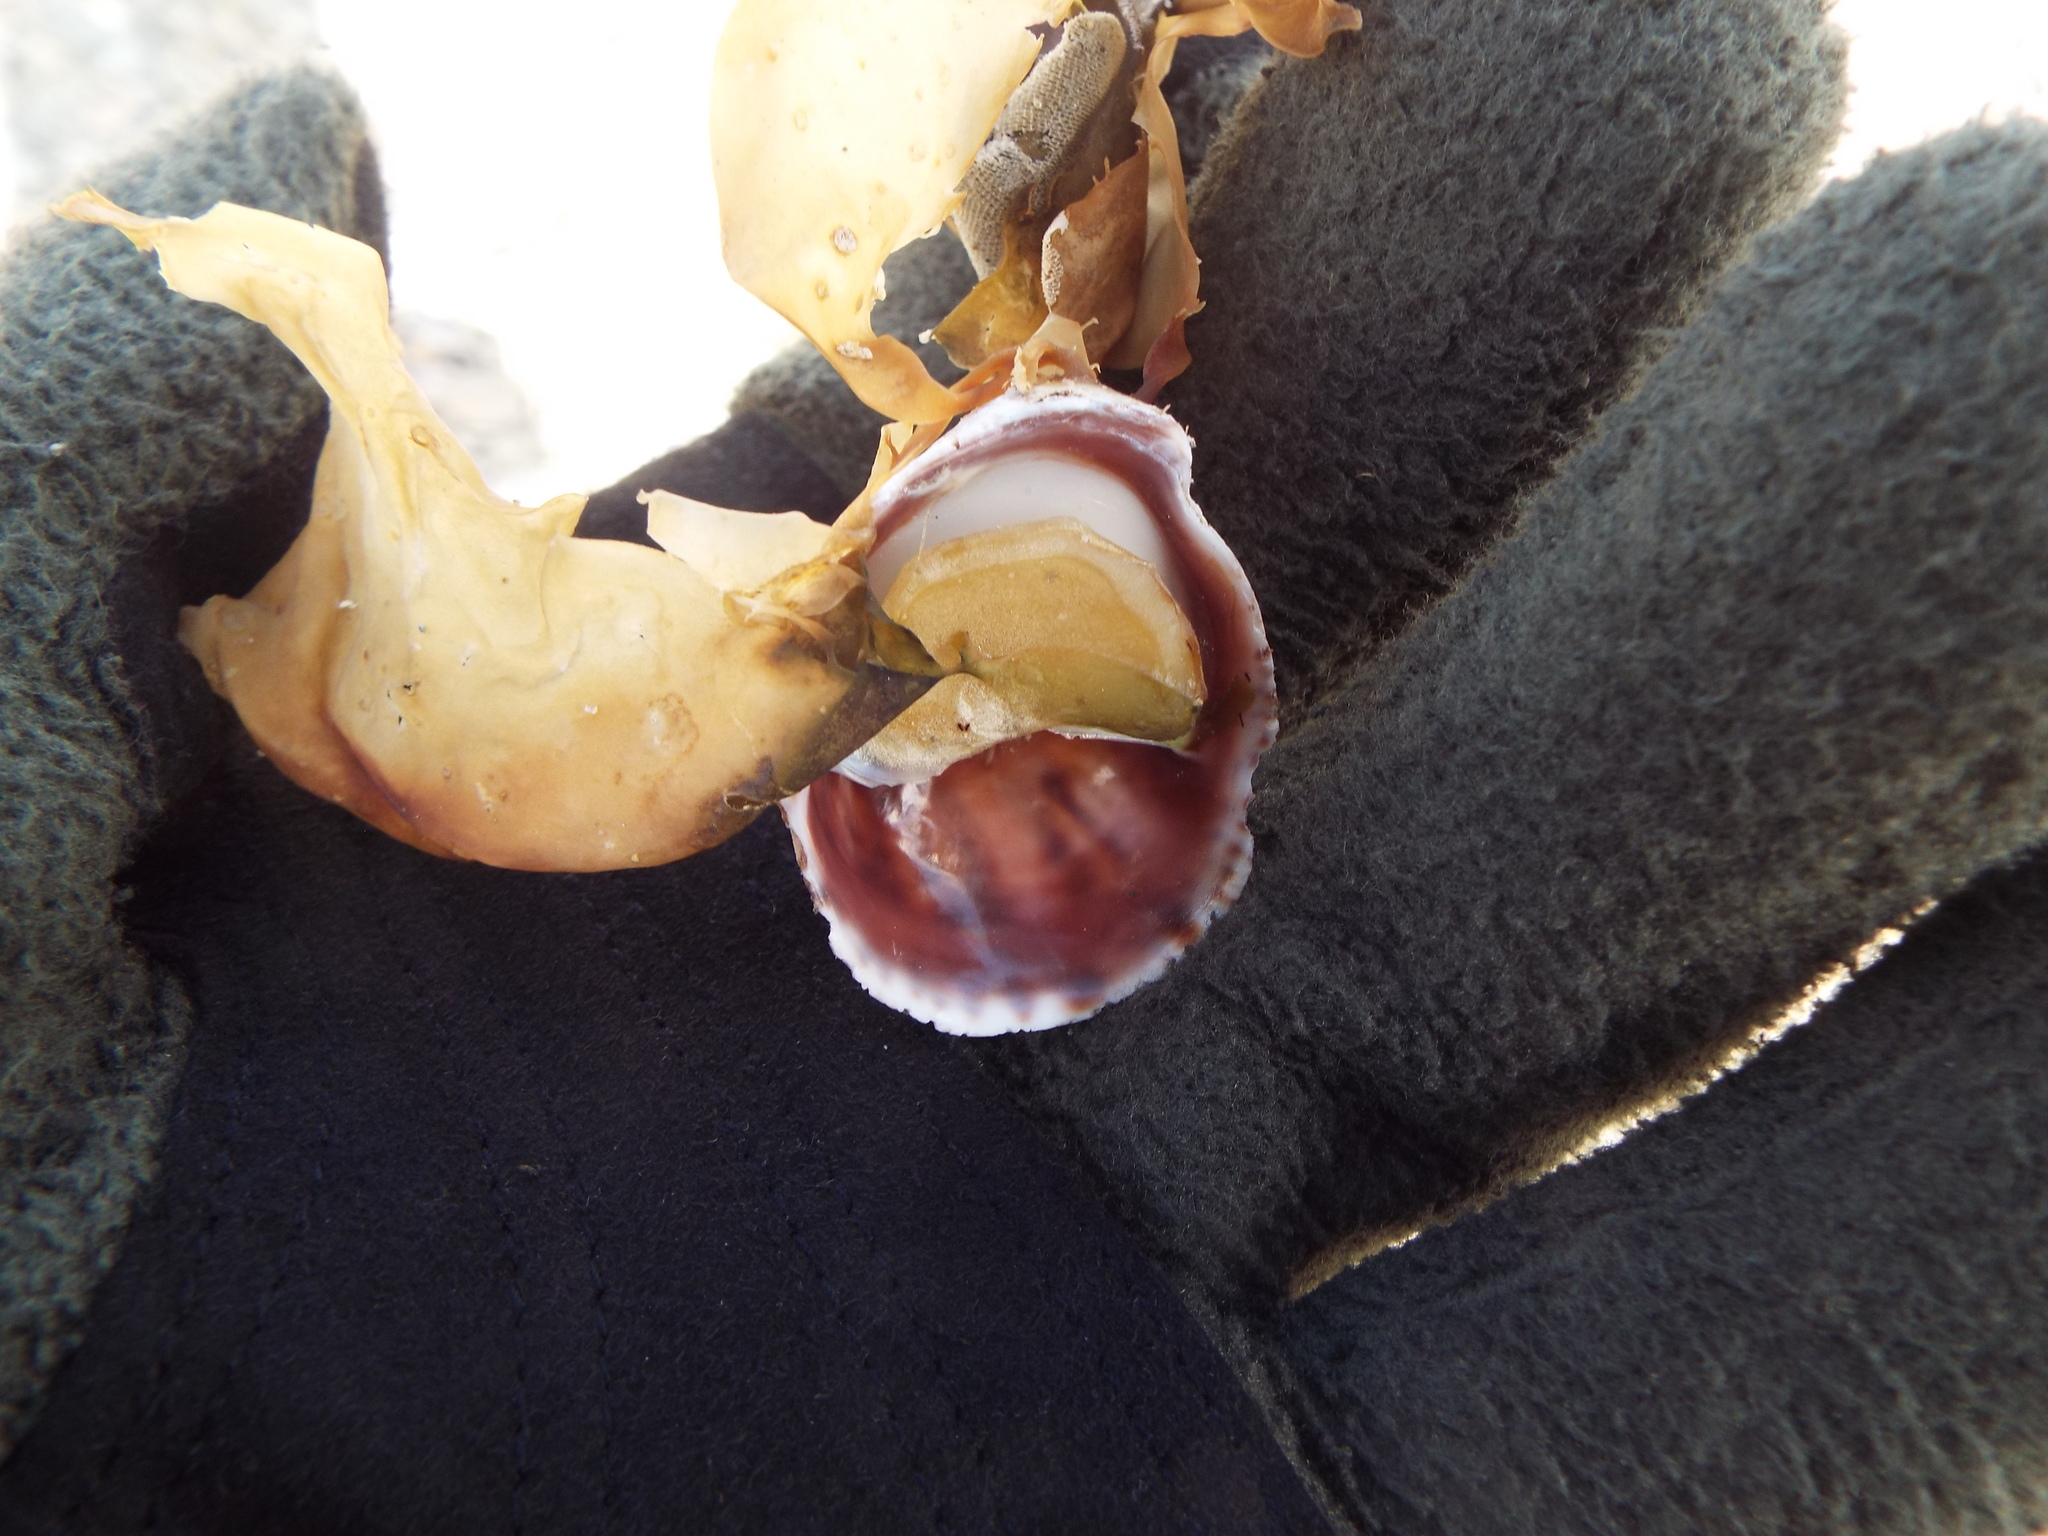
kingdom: Animalia
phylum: Mollusca
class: Gastropoda
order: Littorinimorpha
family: Calyptraeidae
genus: Crepidula
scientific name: Crepidula fornicata
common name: Slipper limpet
